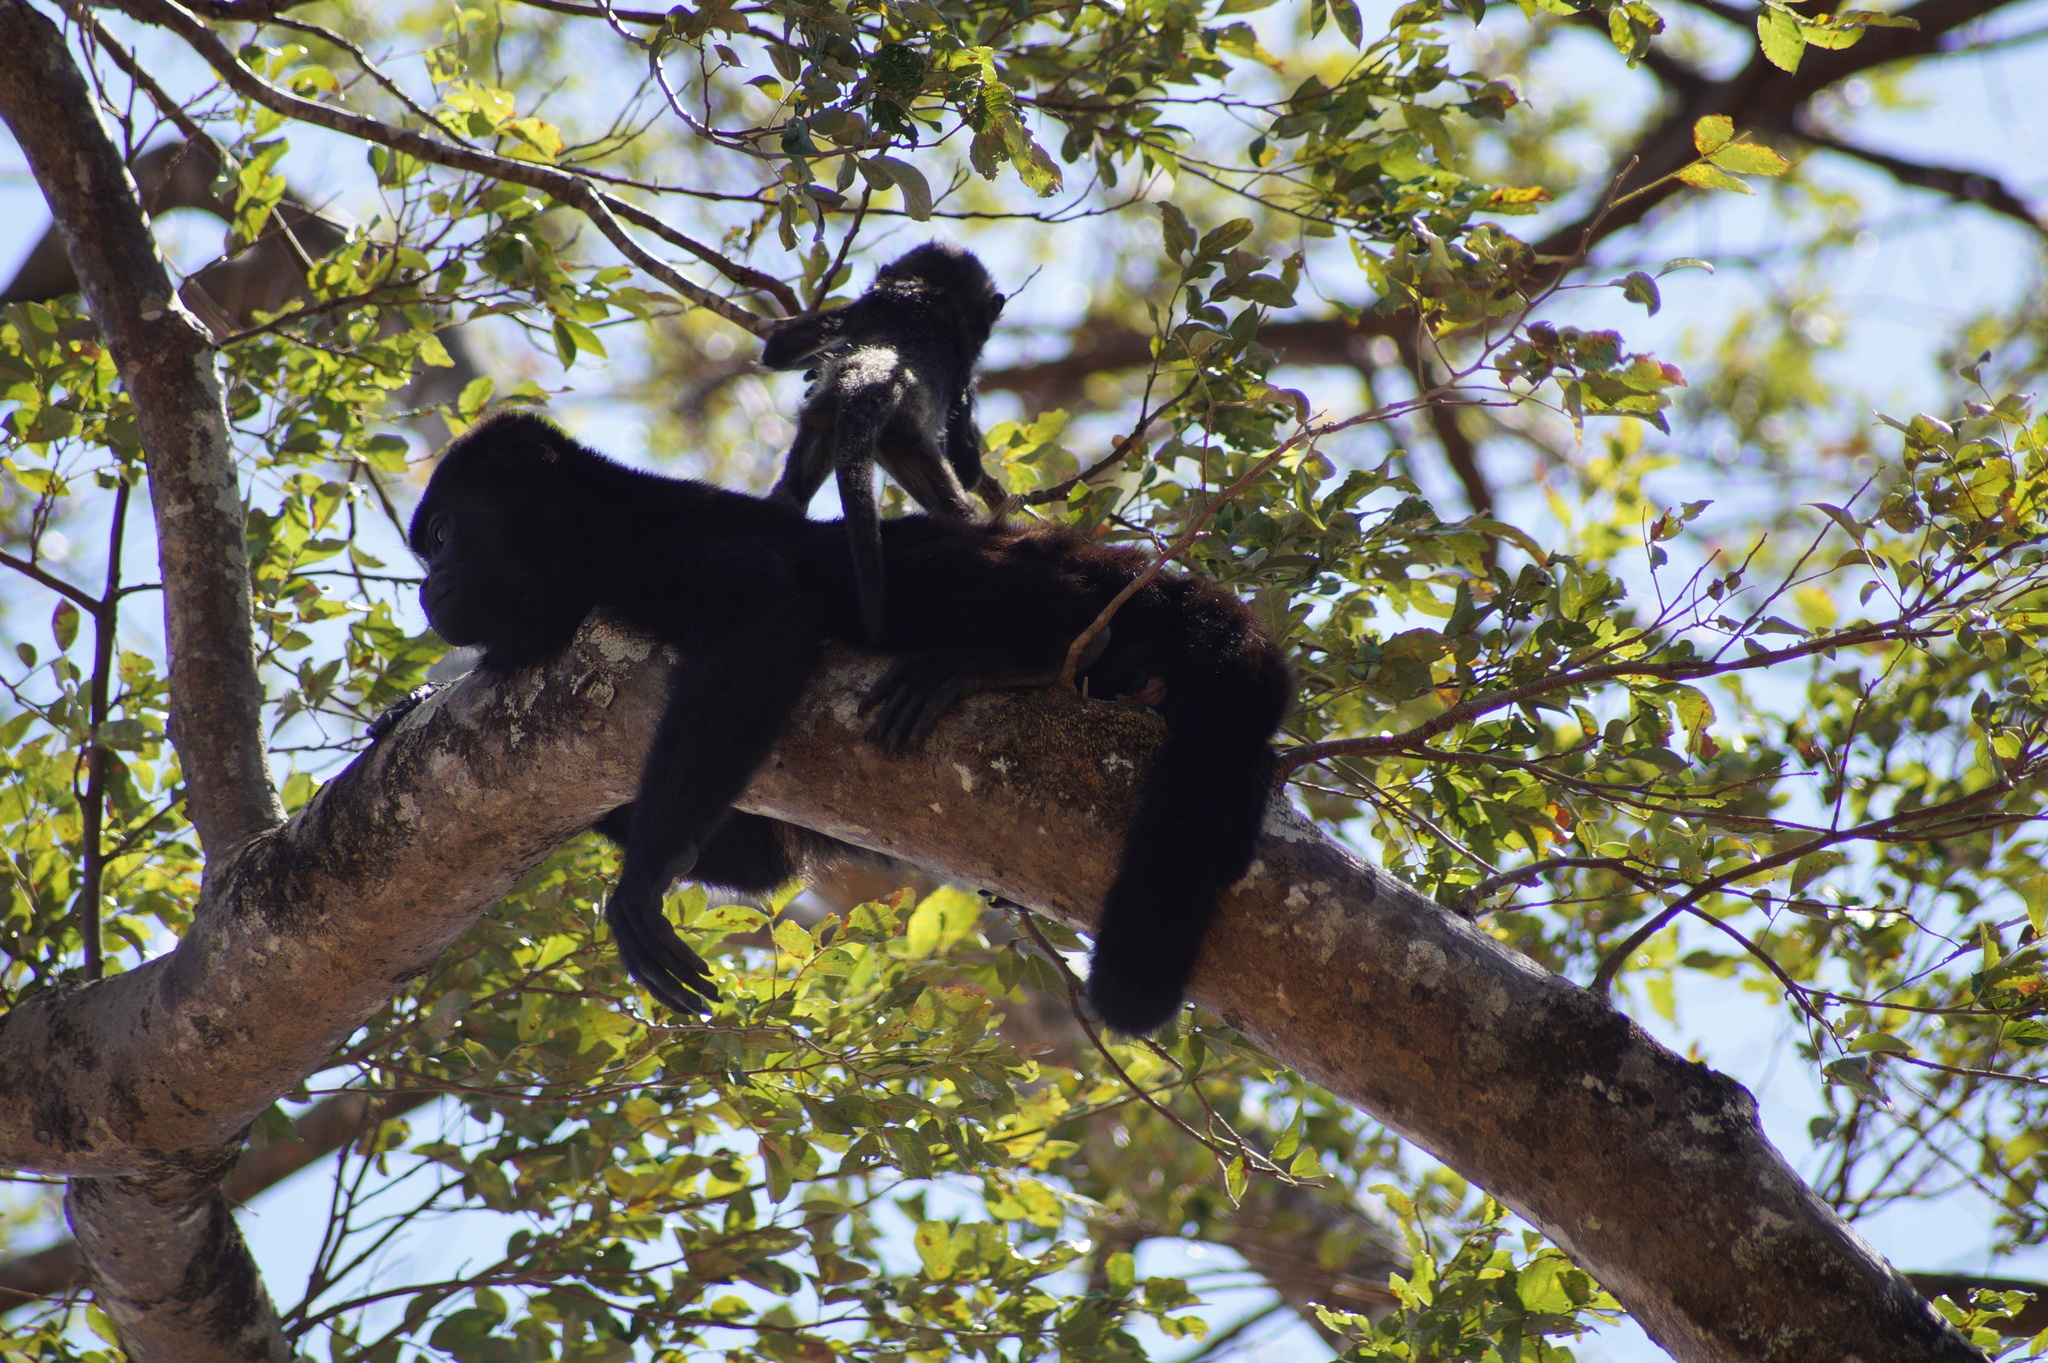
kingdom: Animalia
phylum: Chordata
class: Mammalia
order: Primates
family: Atelidae
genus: Alouatta
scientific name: Alouatta palliata
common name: Mantled howler
